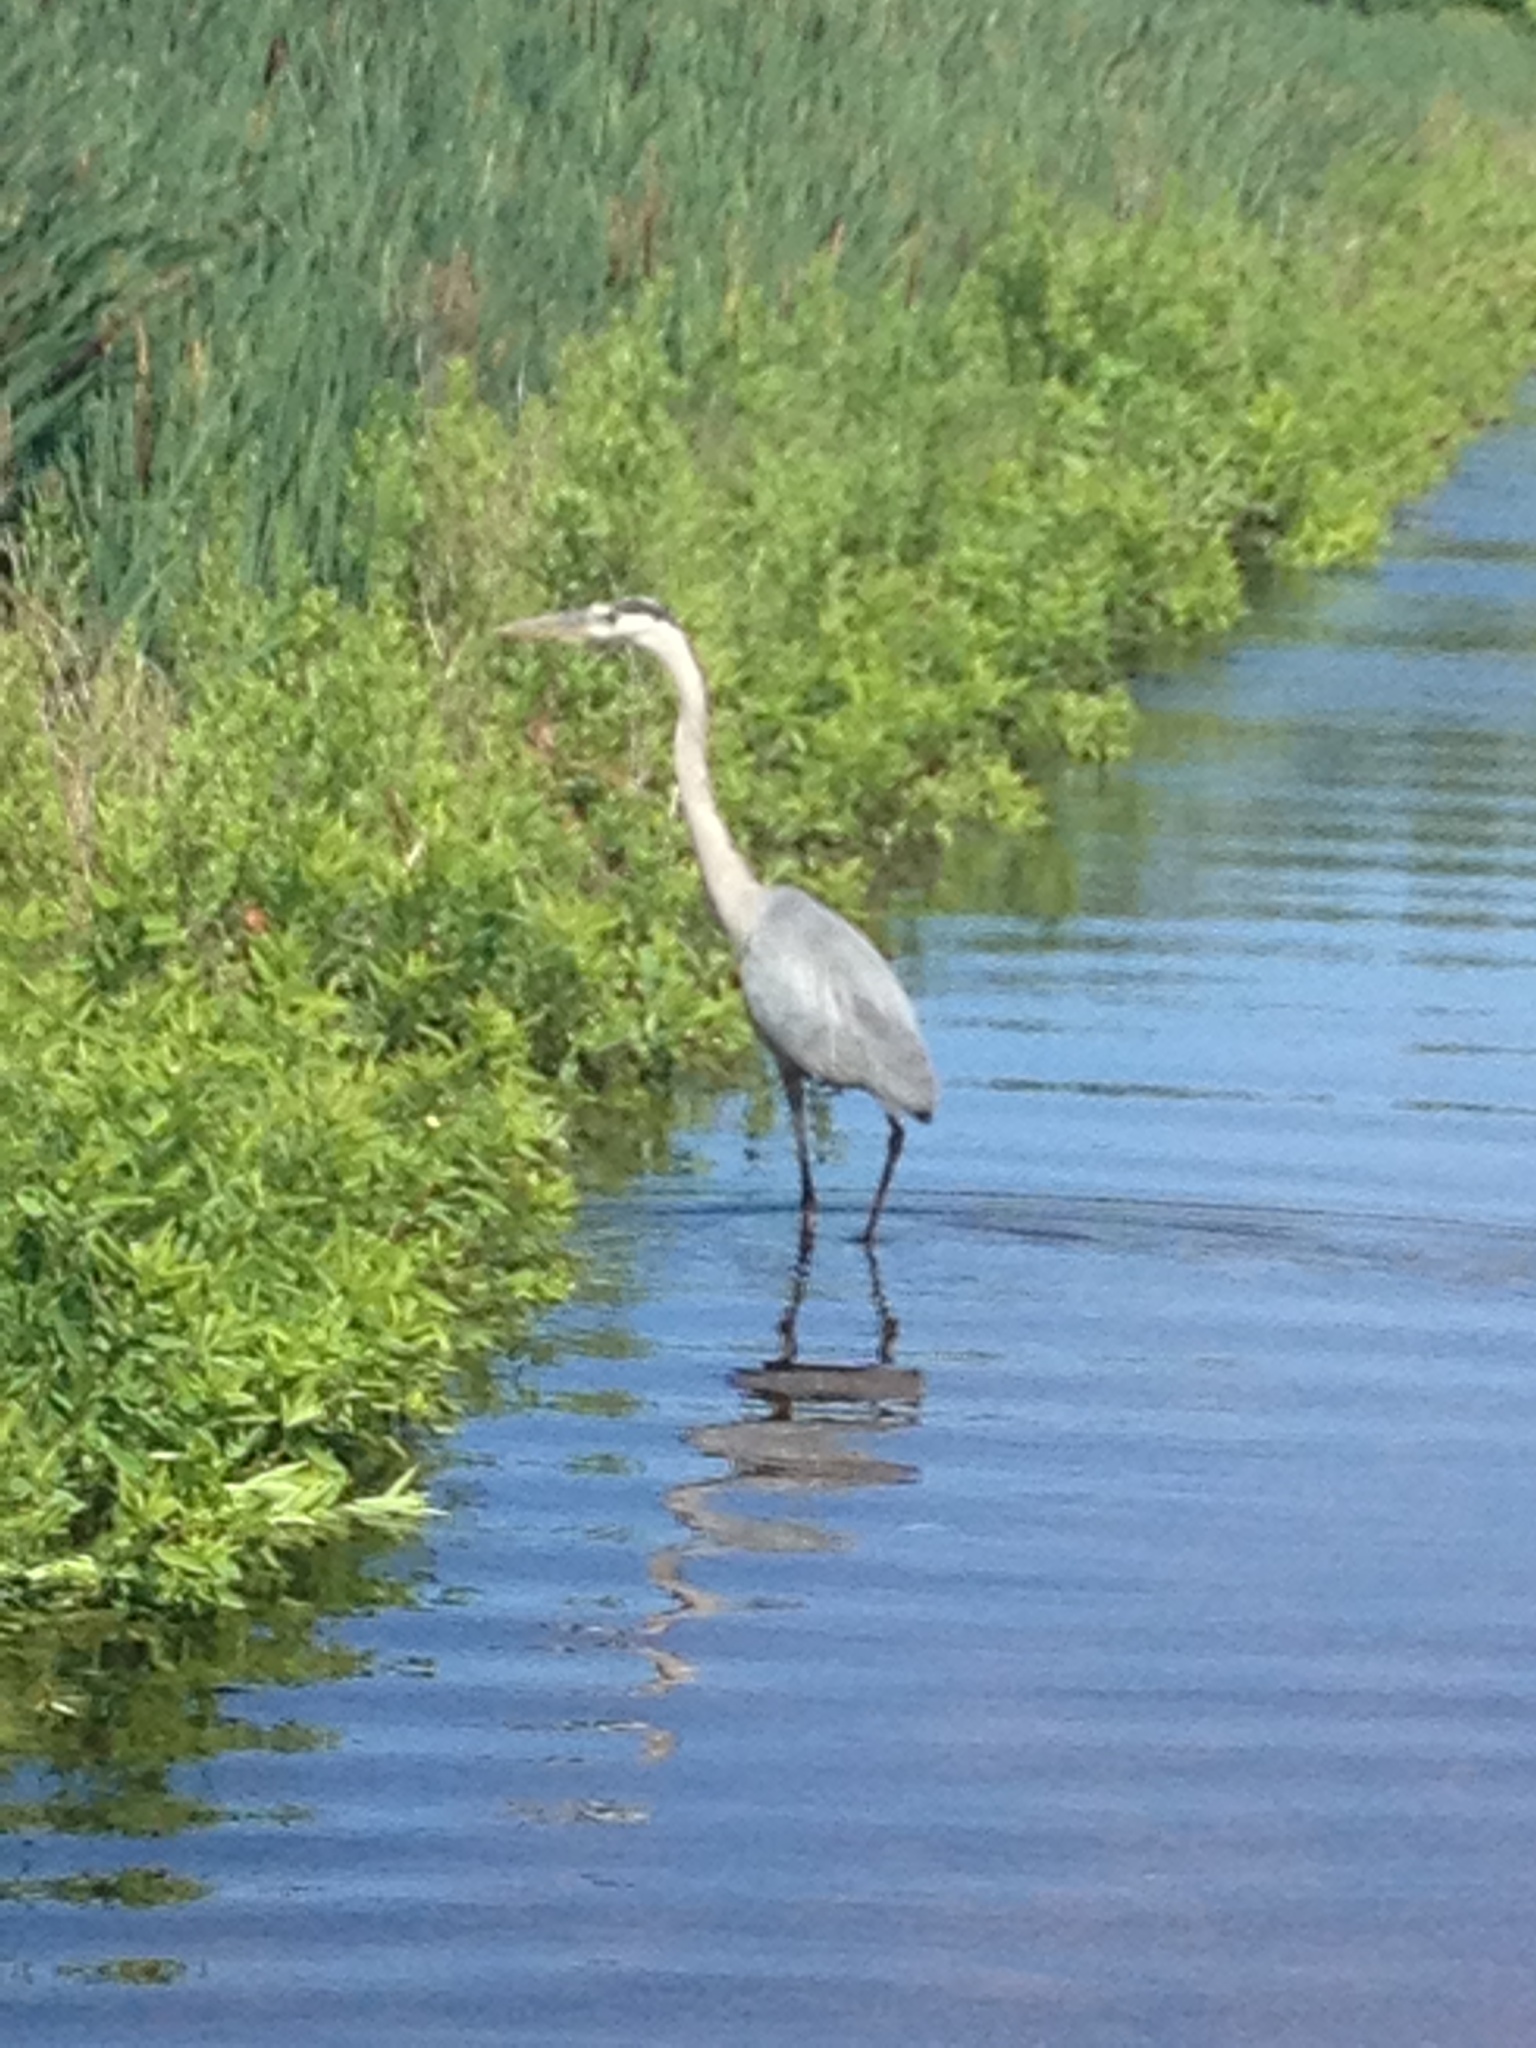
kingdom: Animalia
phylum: Chordata
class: Aves
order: Pelecaniformes
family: Ardeidae
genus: Ardea
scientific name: Ardea herodias
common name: Great blue heron
